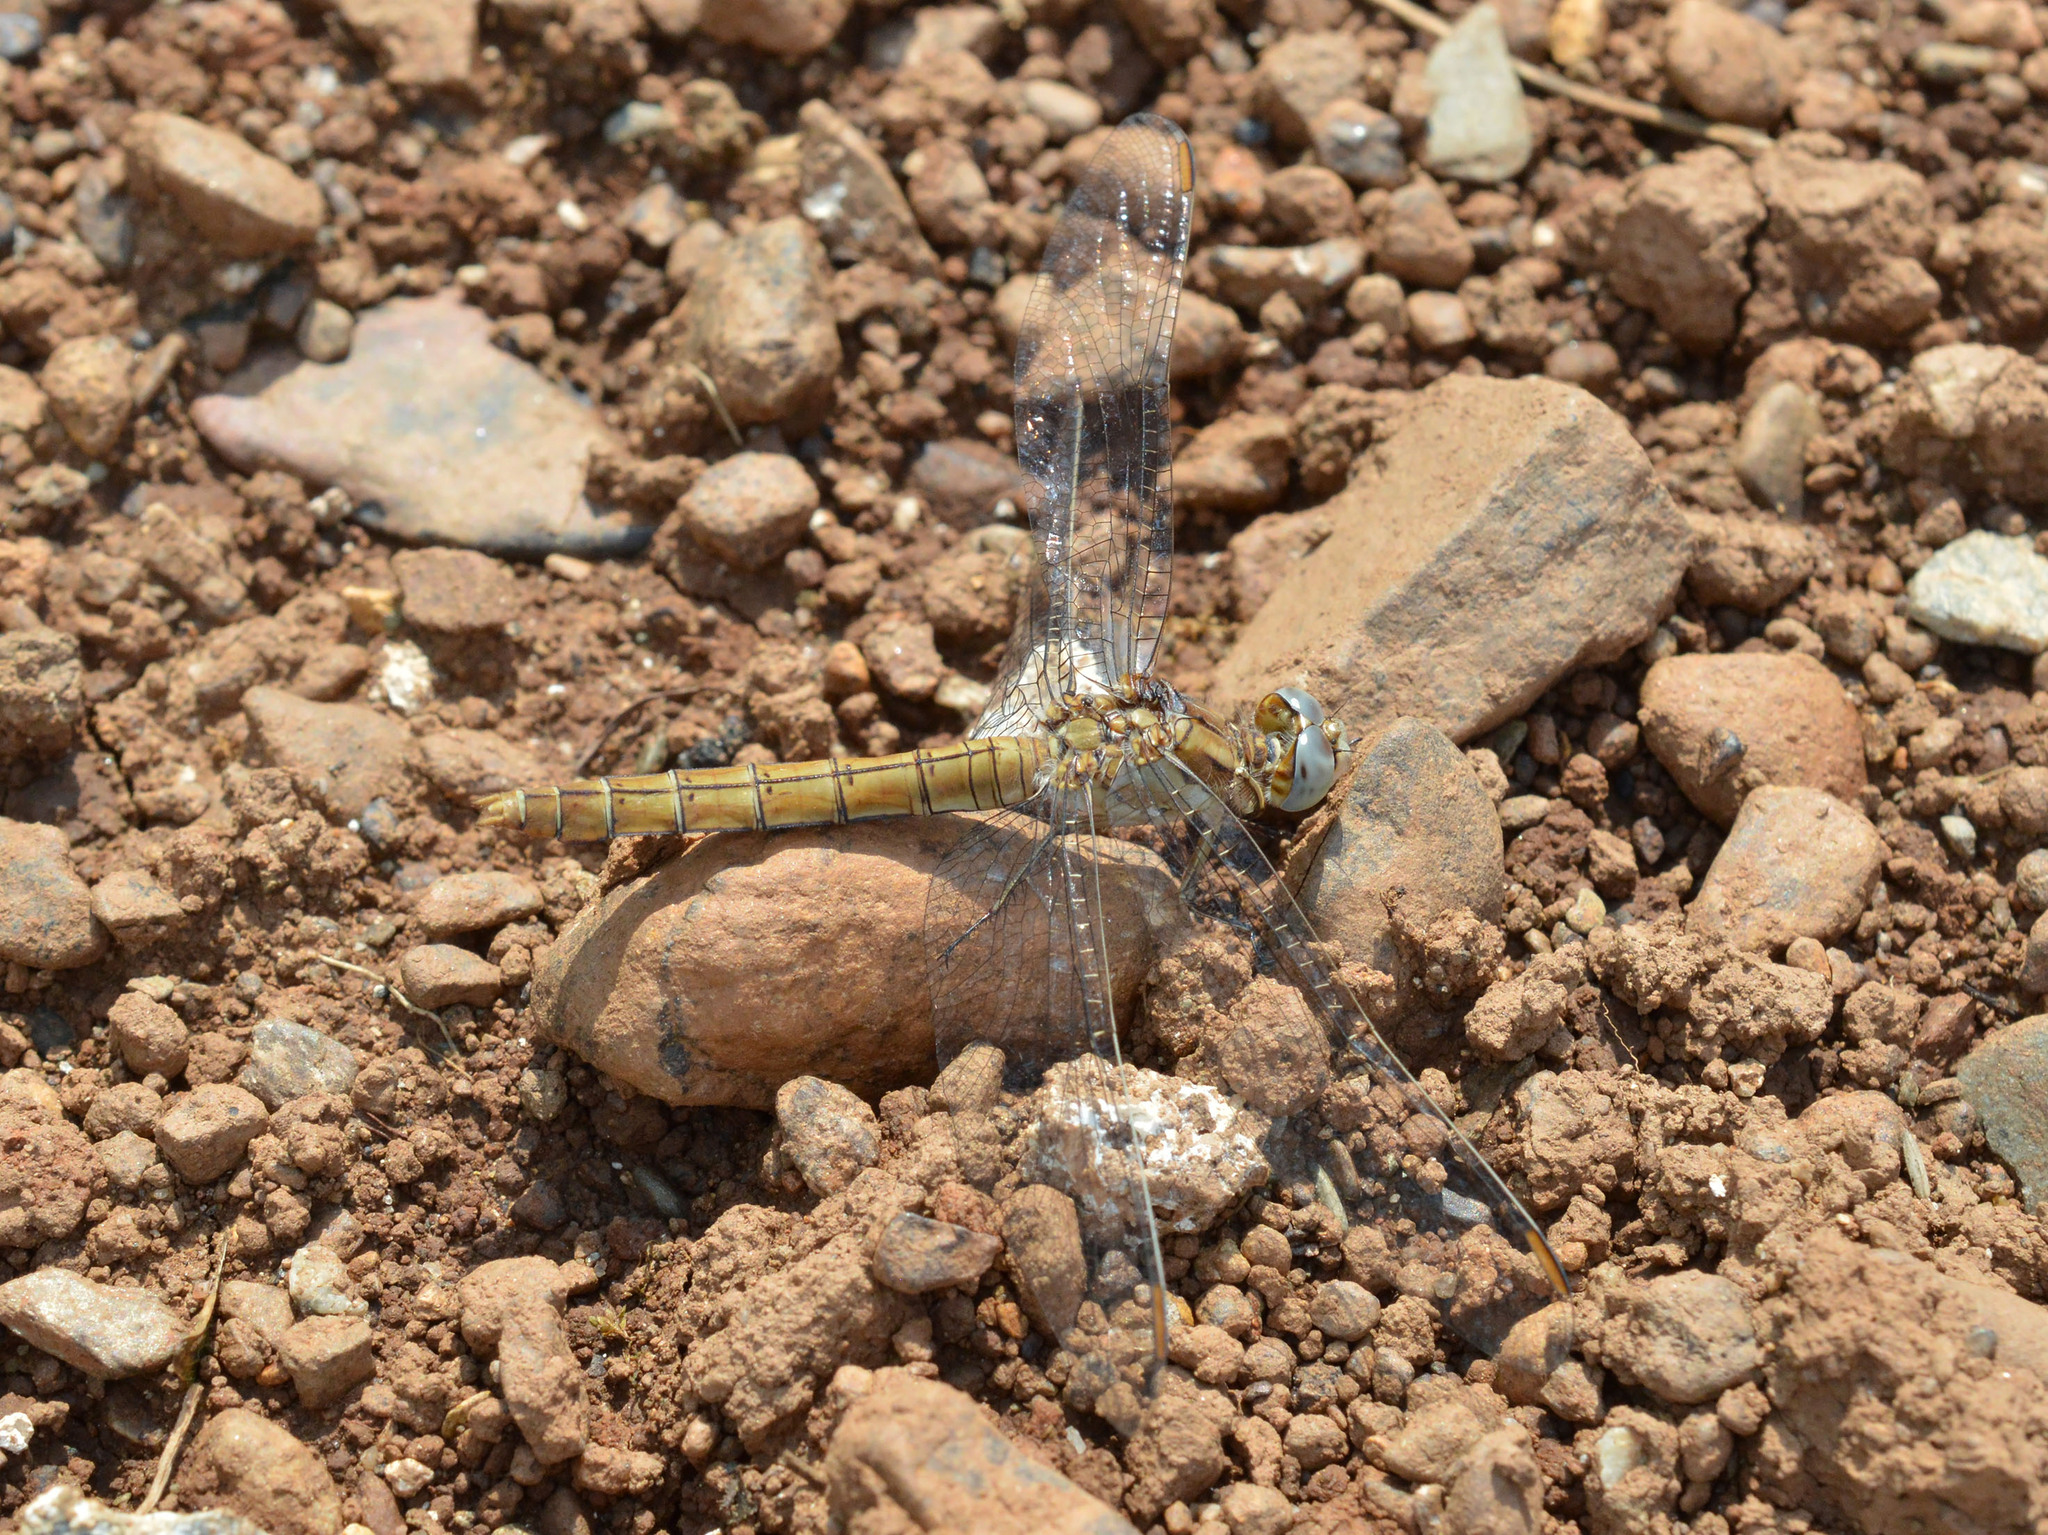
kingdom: Animalia
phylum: Arthropoda
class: Insecta
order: Odonata
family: Libellulidae
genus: Orthetrum
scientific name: Orthetrum brunneum
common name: Southern skimmer
